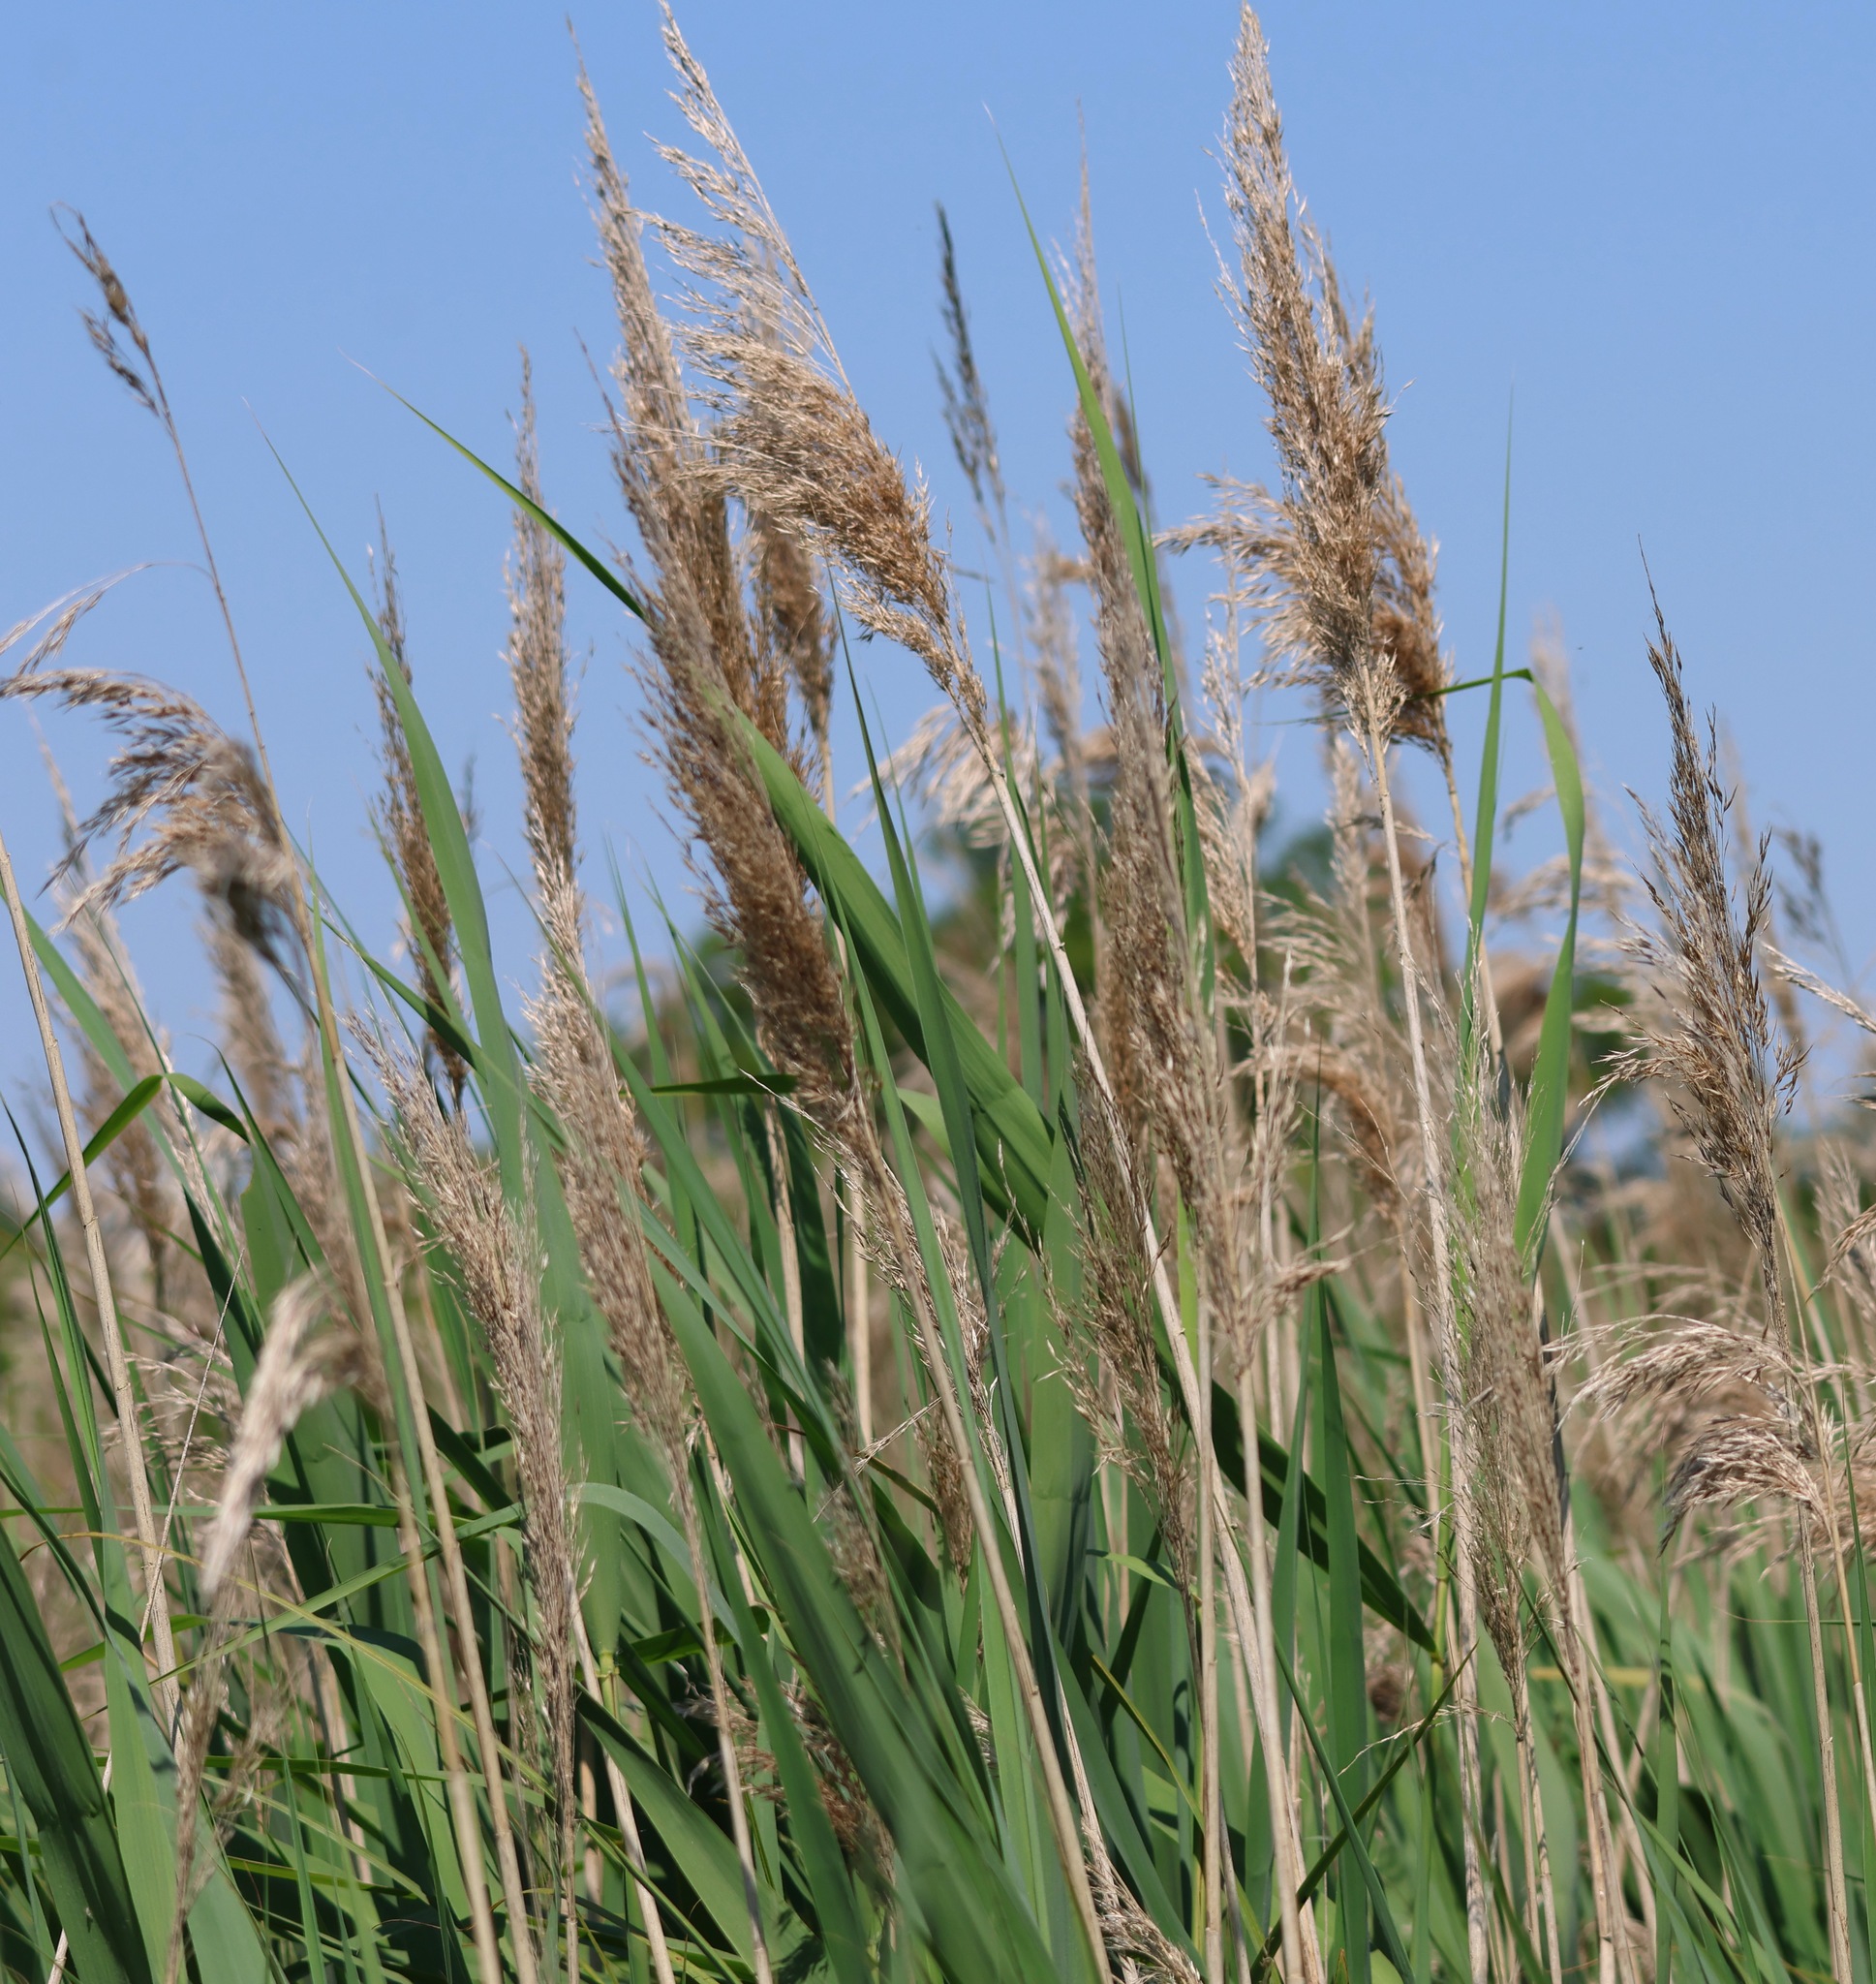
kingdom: Plantae
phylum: Tracheophyta
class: Liliopsida
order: Poales
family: Poaceae
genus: Phragmites
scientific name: Phragmites australis
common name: Common reed
